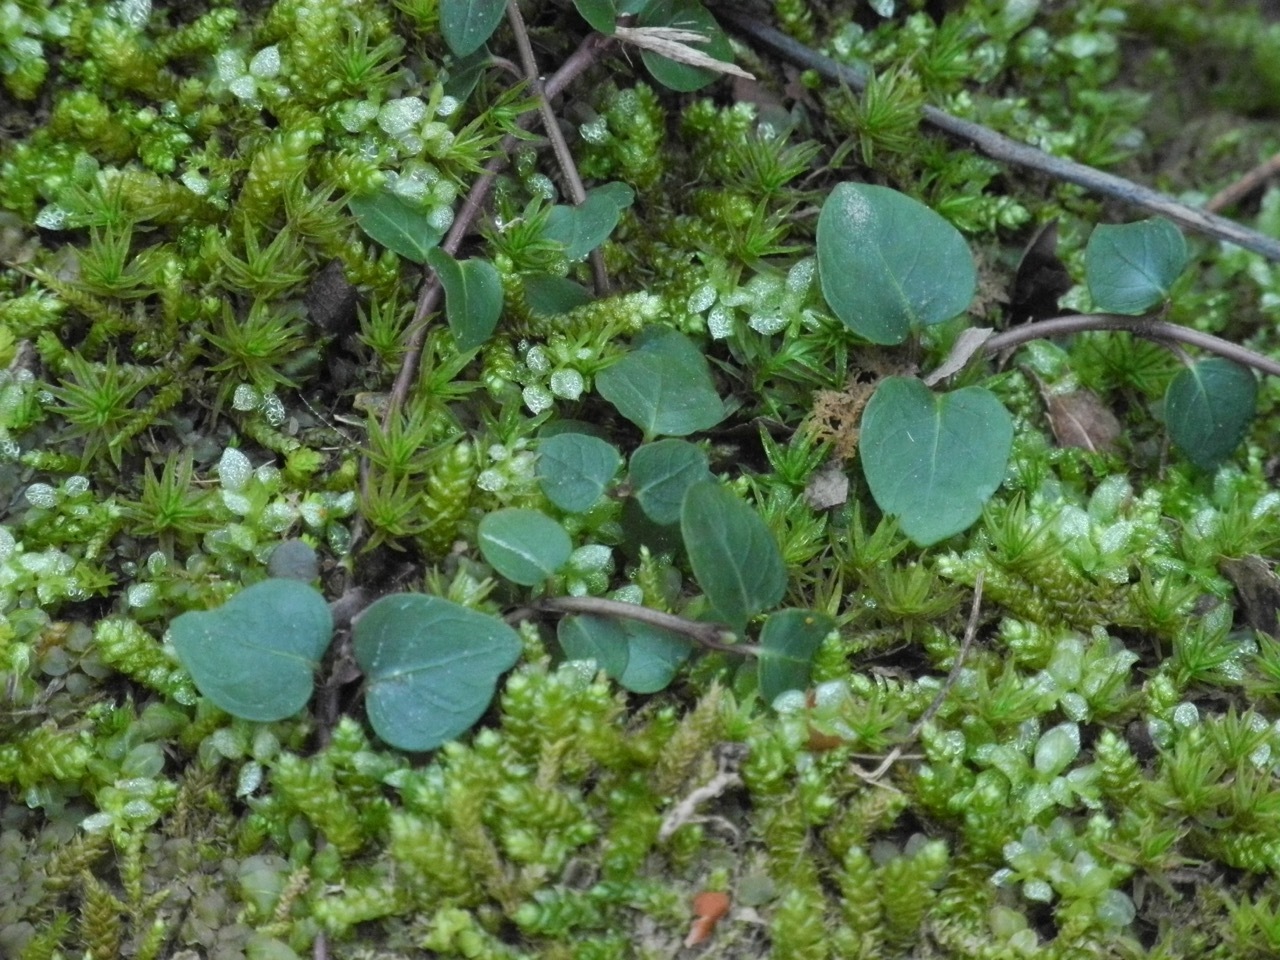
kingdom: Plantae
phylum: Tracheophyta
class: Magnoliopsida
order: Gentianales
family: Rubiaceae
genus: Mitchella
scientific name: Mitchella repens
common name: Partridge-berry
